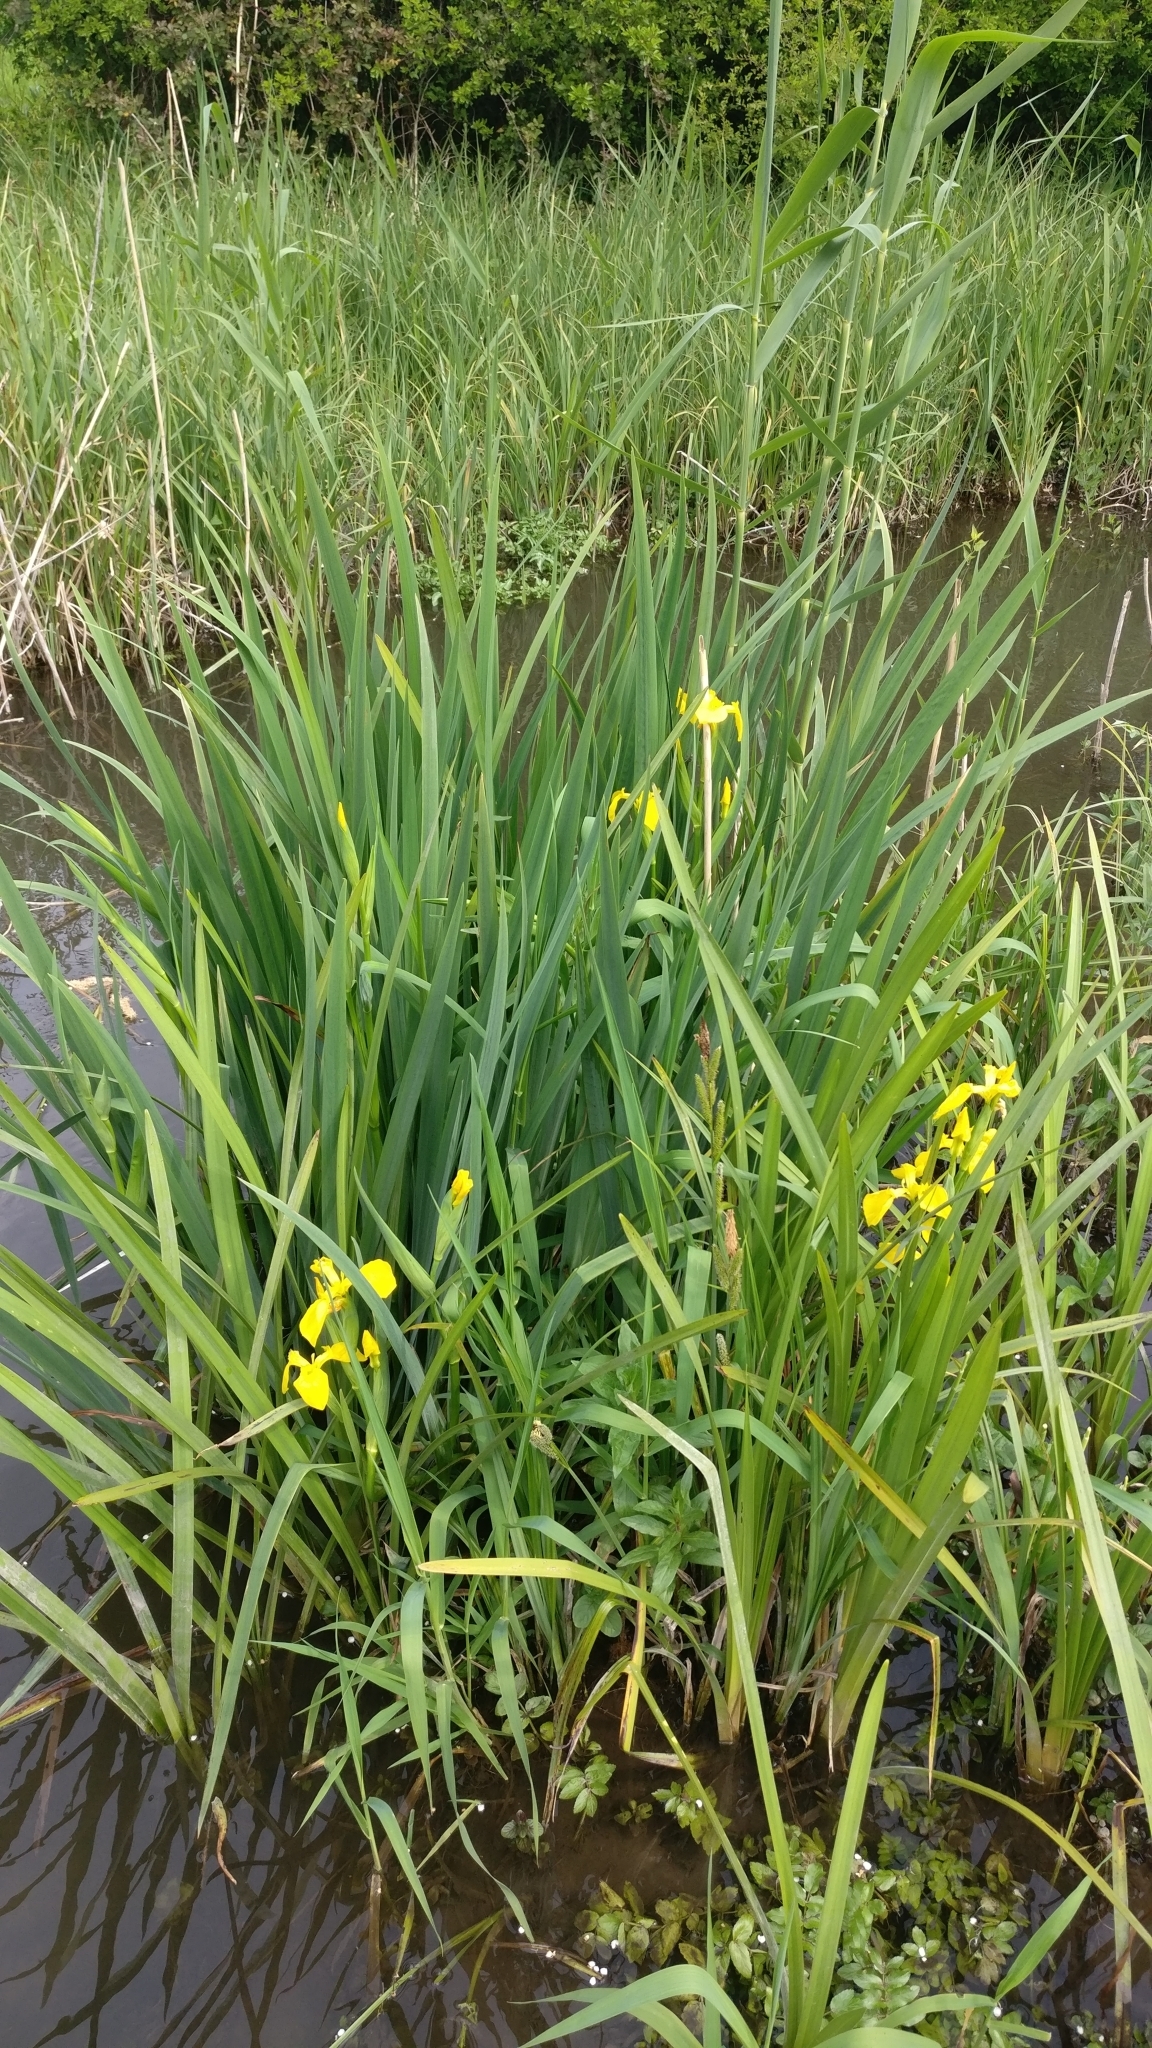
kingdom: Plantae
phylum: Tracheophyta
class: Liliopsida
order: Asparagales
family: Iridaceae
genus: Iris
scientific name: Iris pseudacorus
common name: Yellow flag
